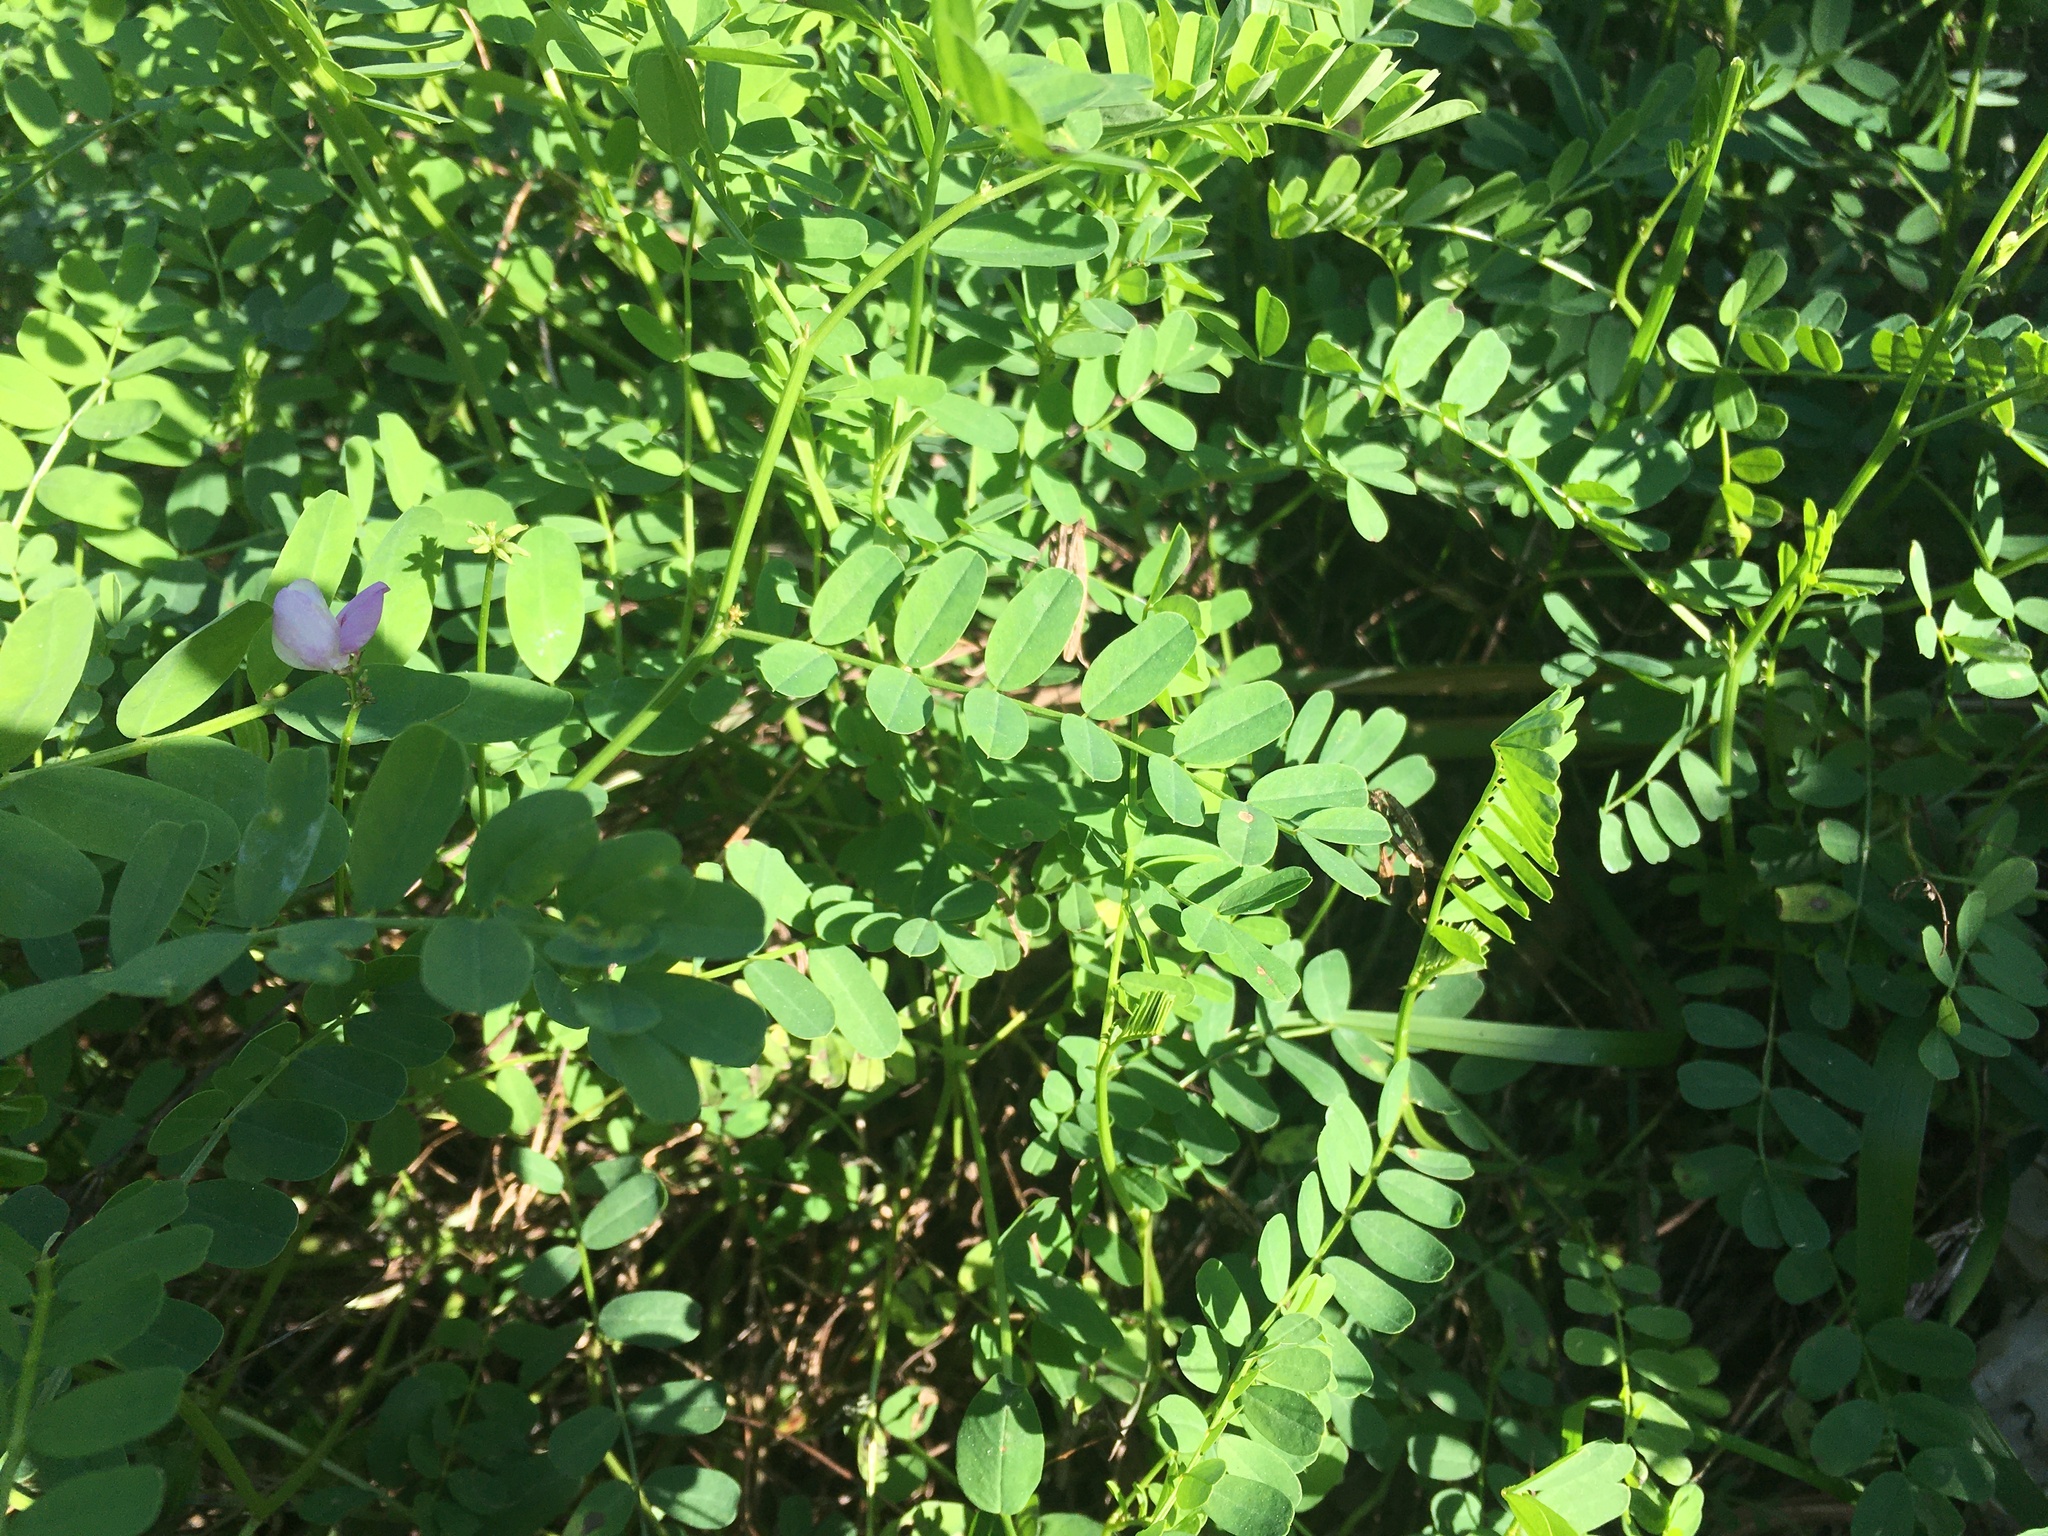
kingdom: Plantae
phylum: Tracheophyta
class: Magnoliopsida
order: Fabales
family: Fabaceae
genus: Coronilla
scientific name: Coronilla varia
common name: Crownvetch
